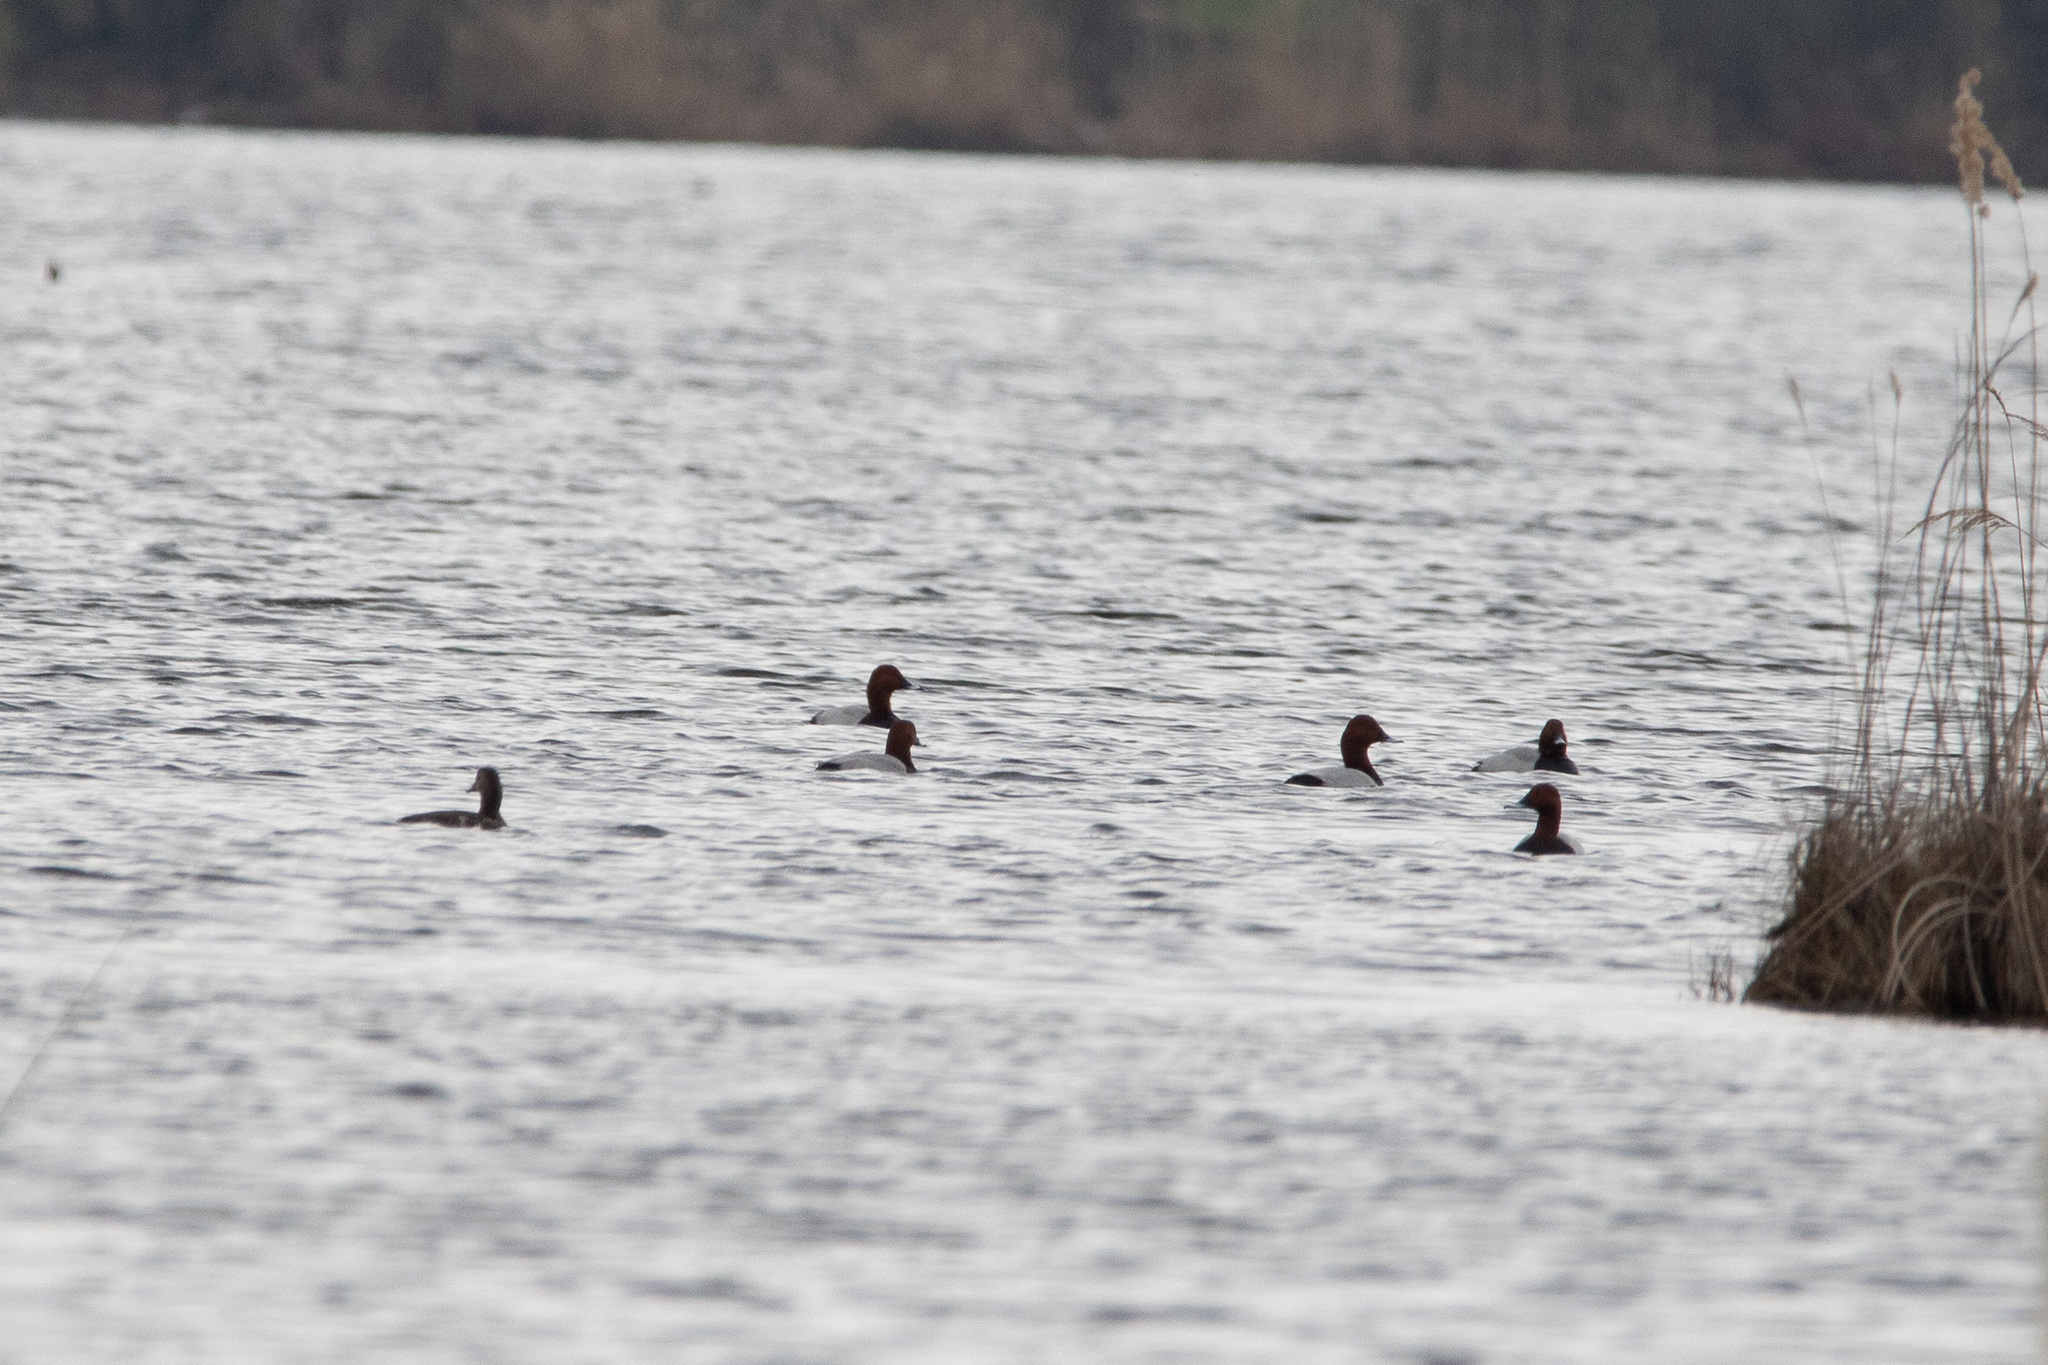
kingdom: Animalia
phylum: Chordata
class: Aves
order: Anseriformes
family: Anatidae
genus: Aythya
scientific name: Aythya ferina
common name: Common pochard
